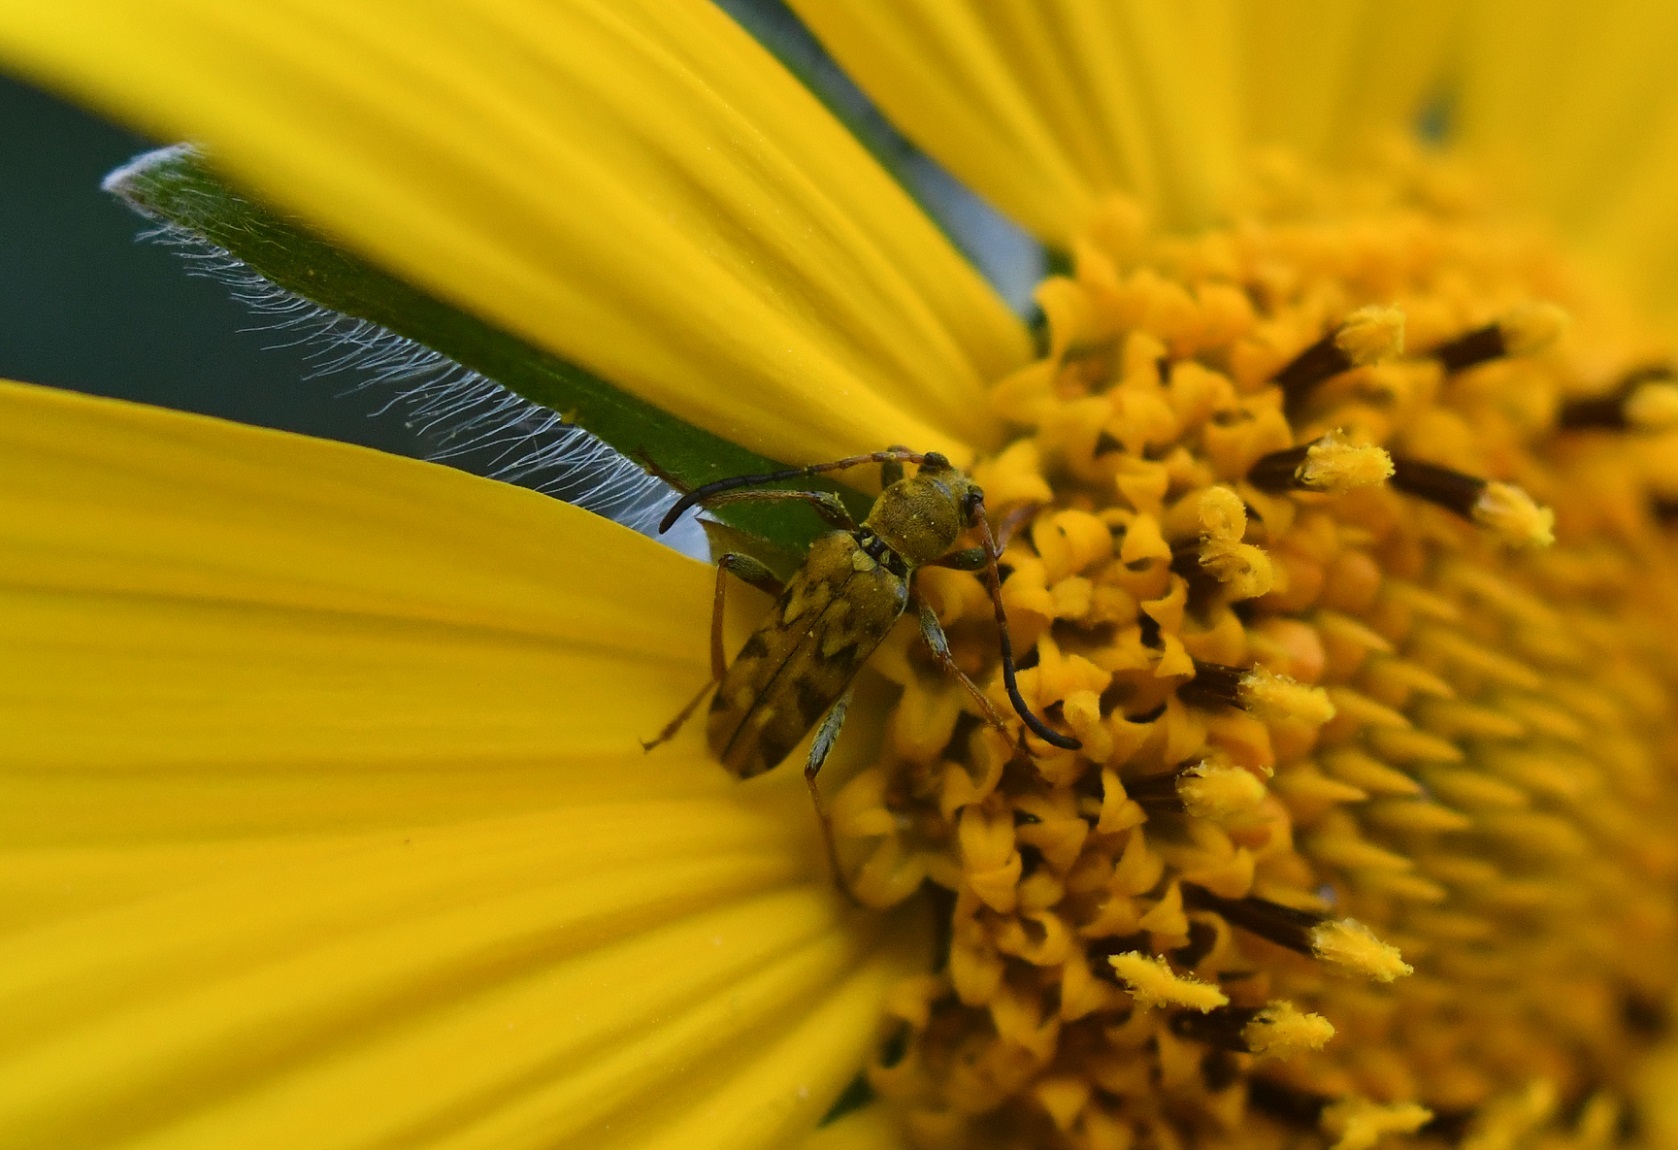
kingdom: Animalia
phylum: Arthropoda
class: Insecta
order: Coleoptera
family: Cerambycidae
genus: Ochraethes
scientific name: Ochraethes pollinosus
